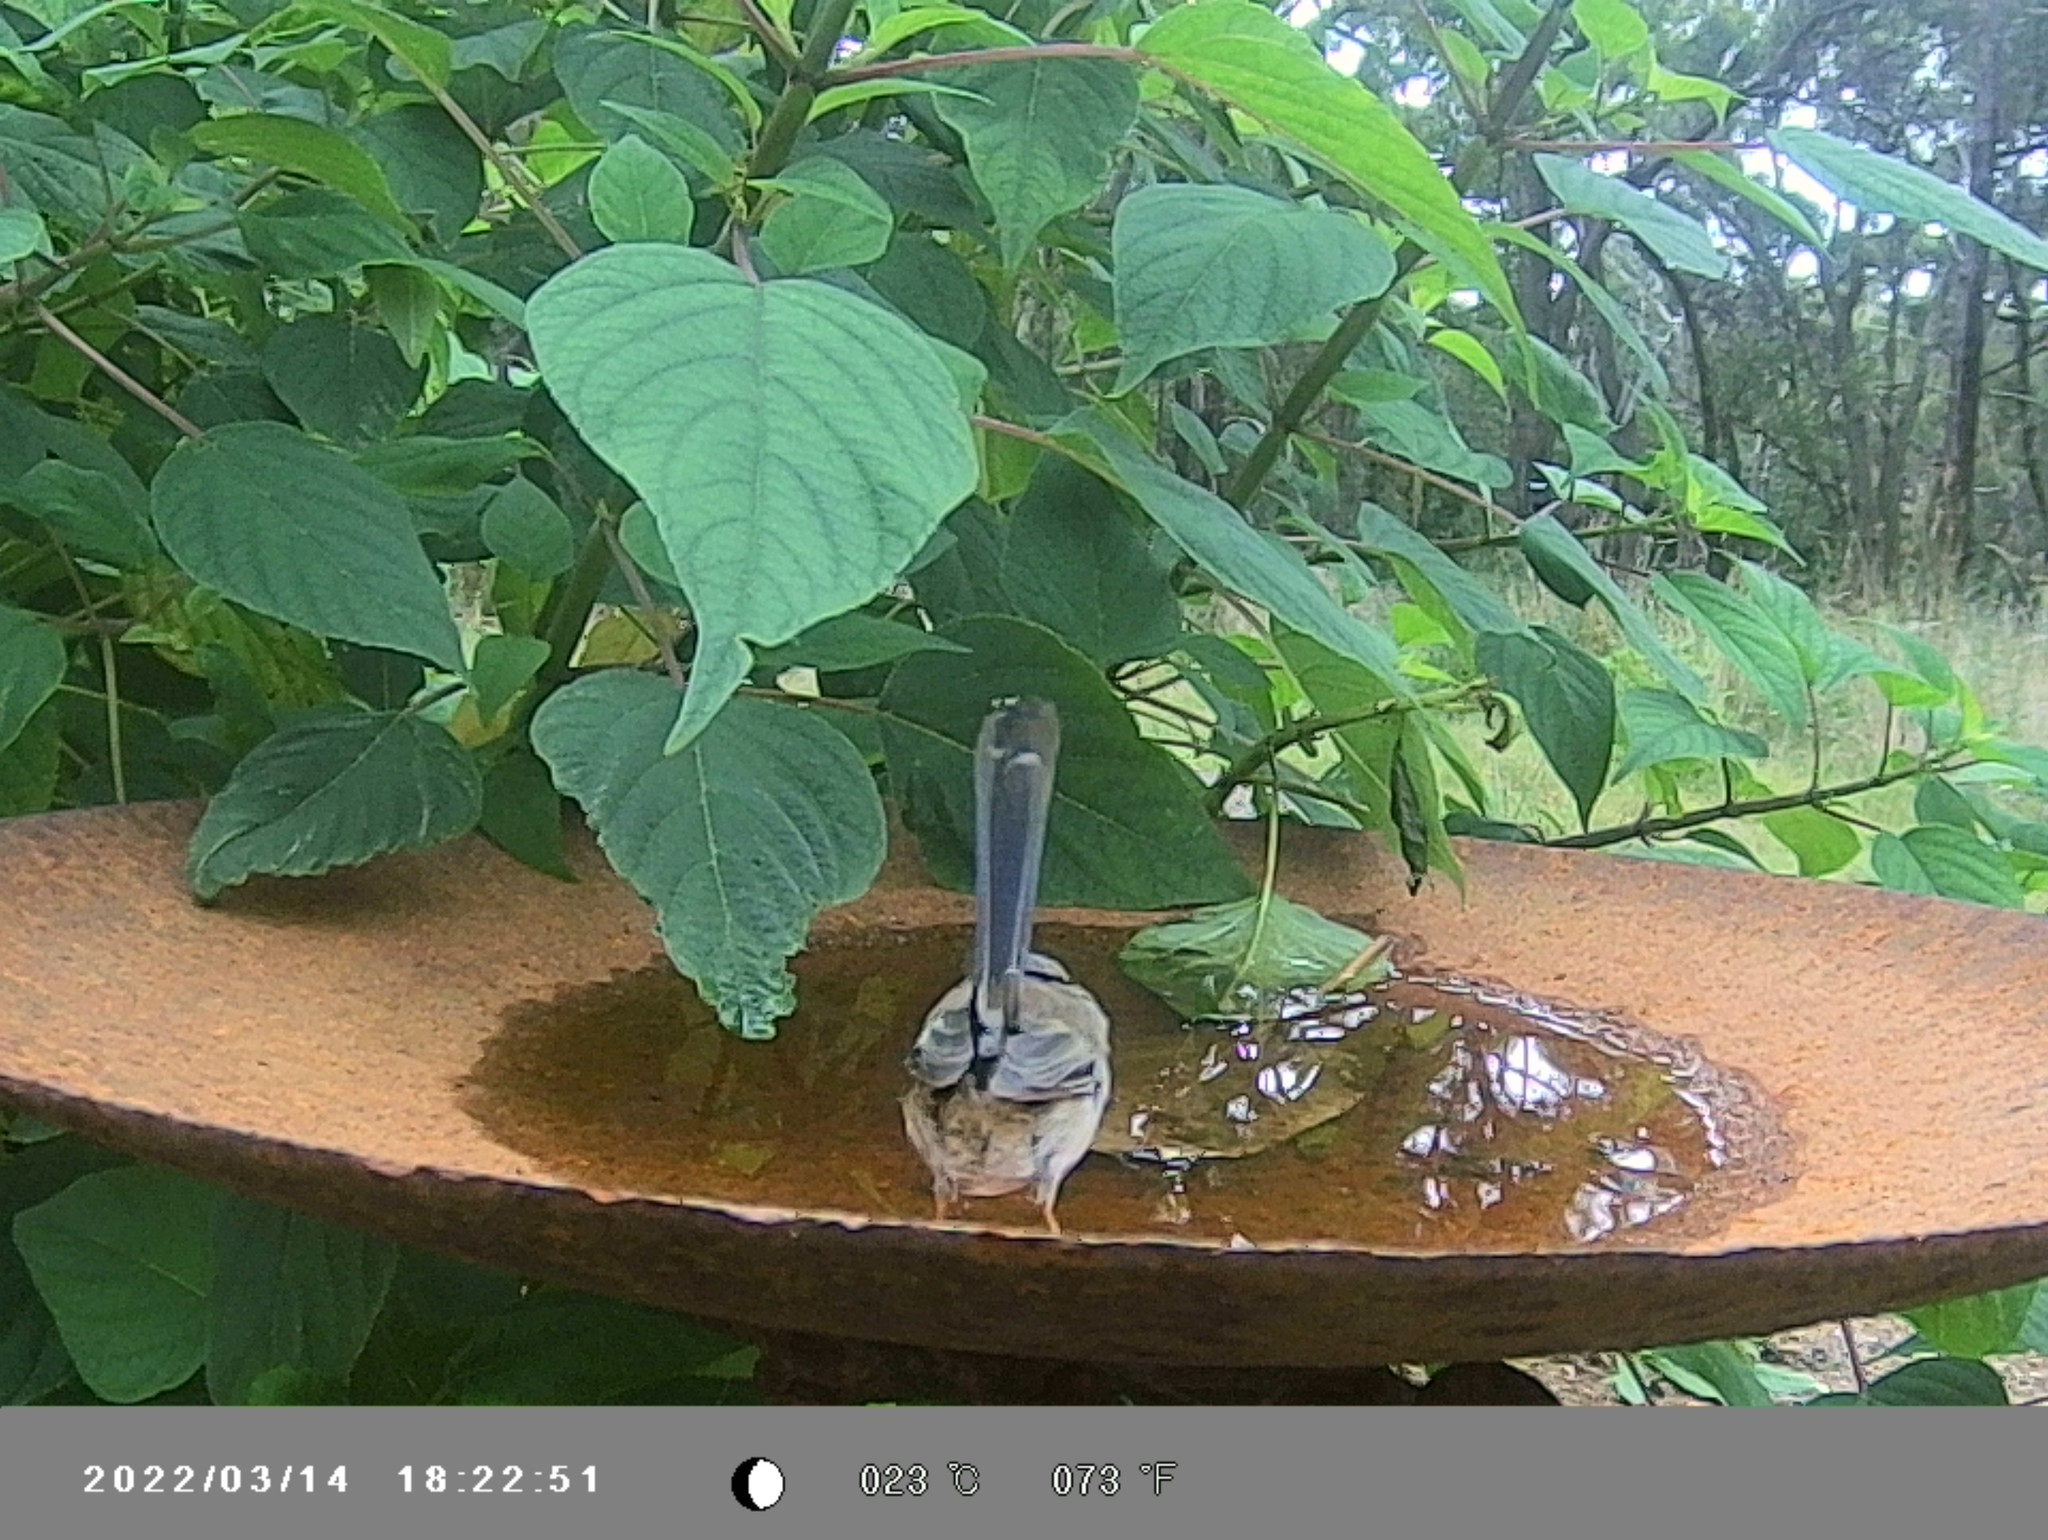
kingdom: Animalia
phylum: Chordata
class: Aves
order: Passeriformes
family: Maluridae
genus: Malurus
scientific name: Malurus cyaneus
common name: Superb fairywren
